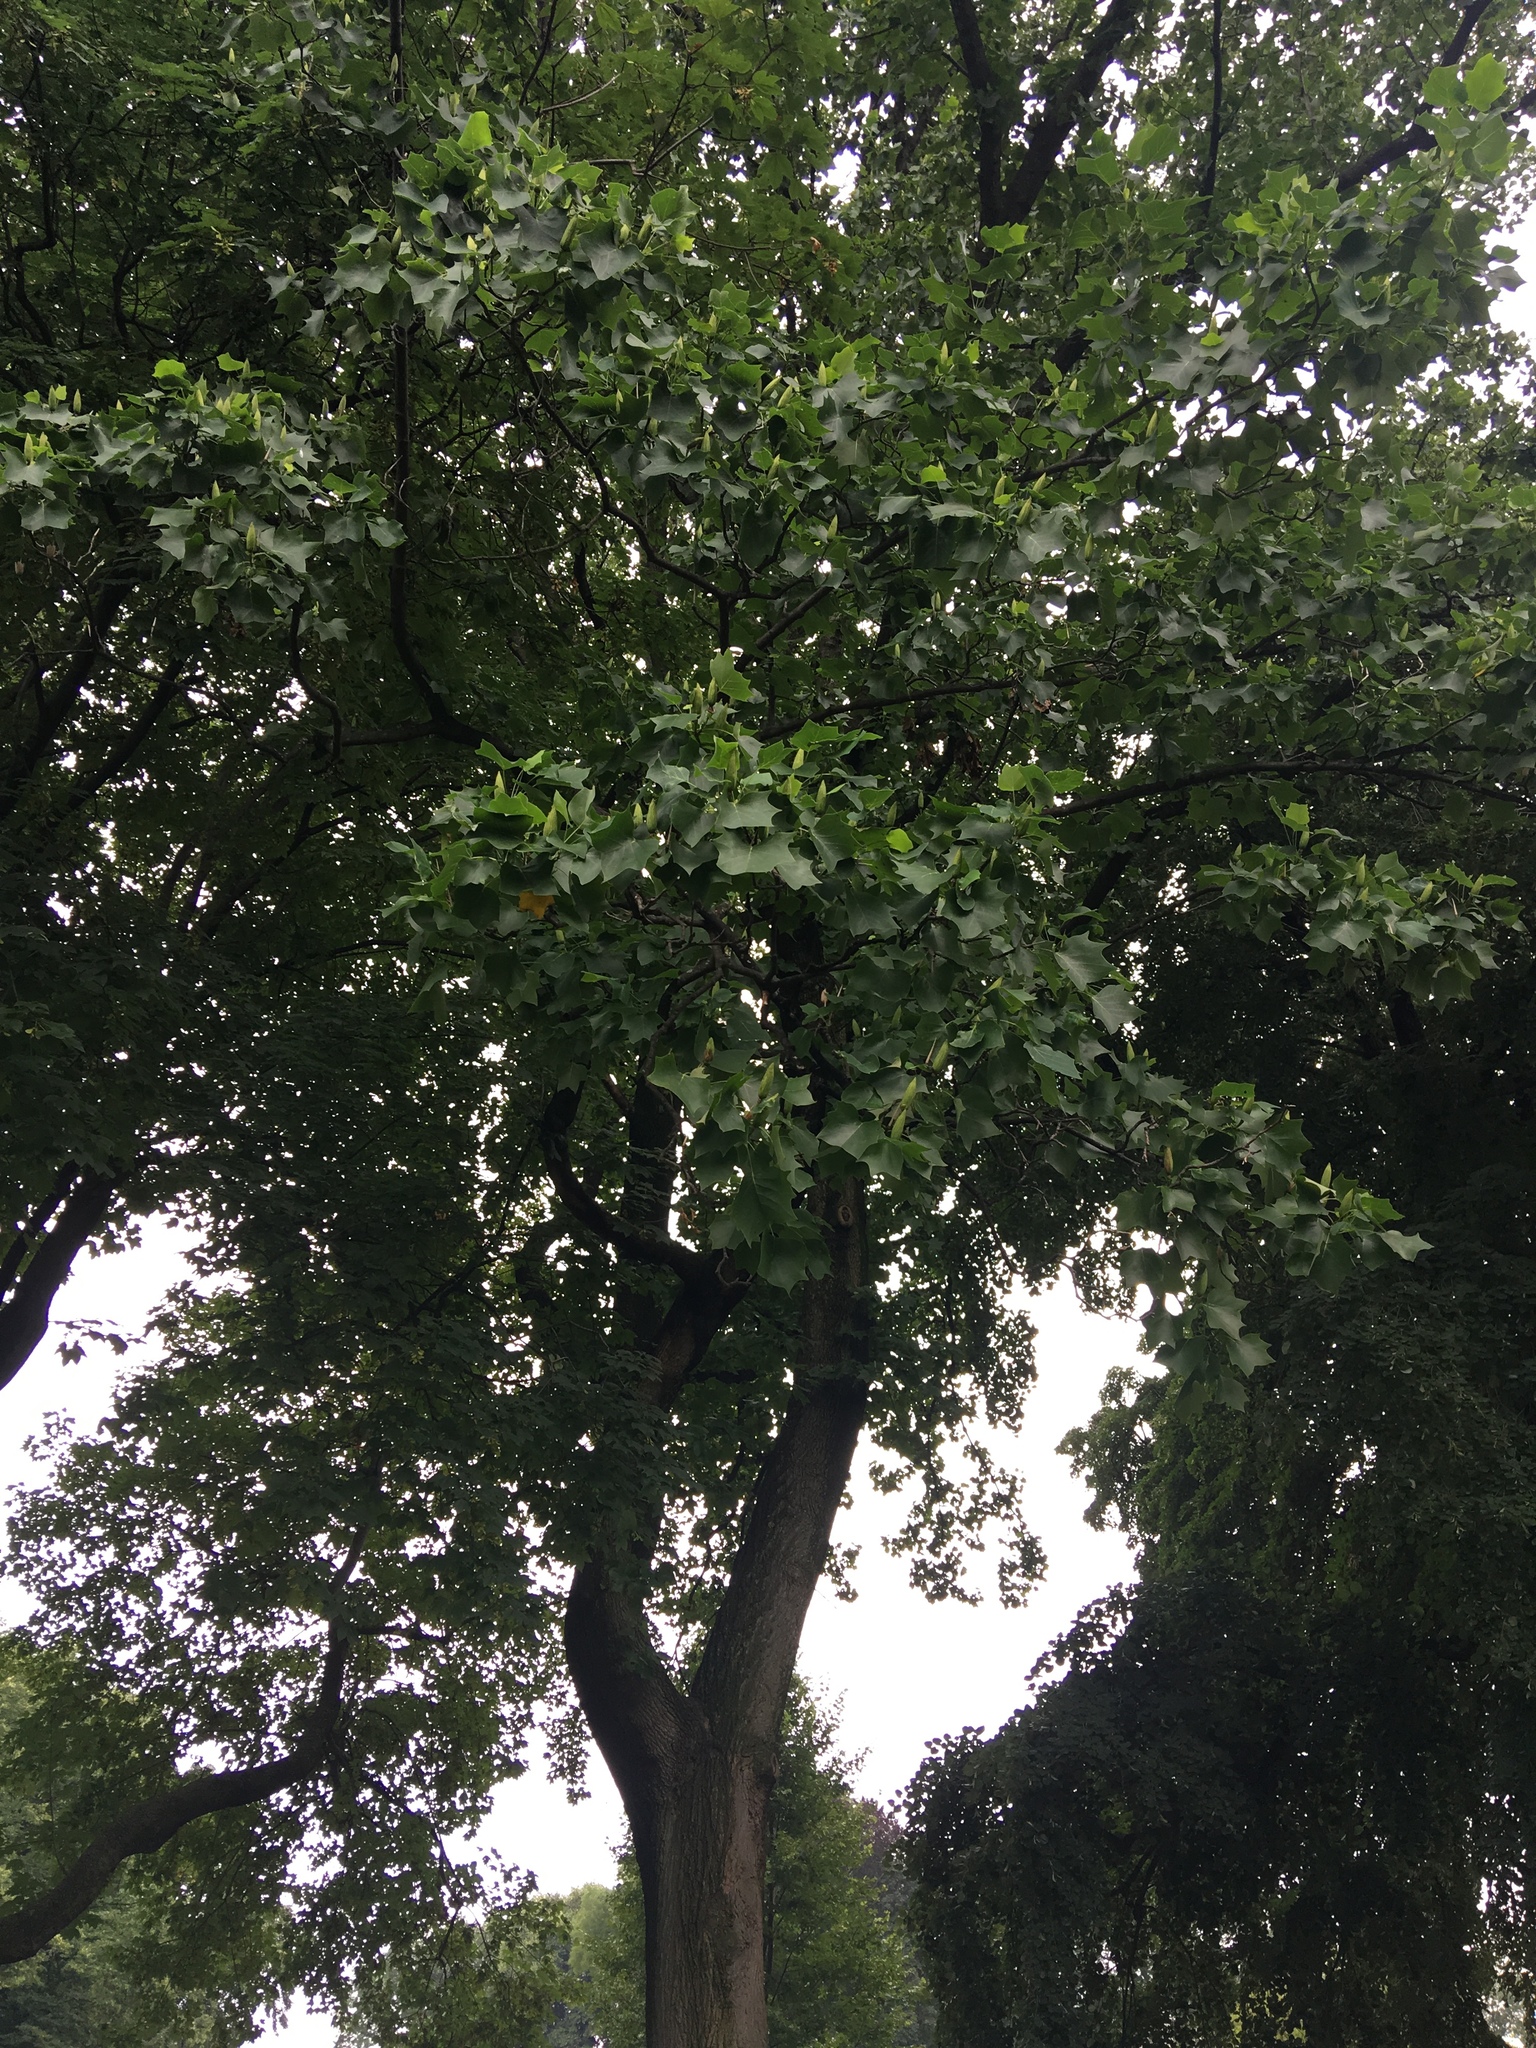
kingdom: Plantae
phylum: Tracheophyta
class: Magnoliopsida
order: Magnoliales
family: Magnoliaceae
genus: Liriodendron
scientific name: Liriodendron tulipifera
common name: Tulip tree
